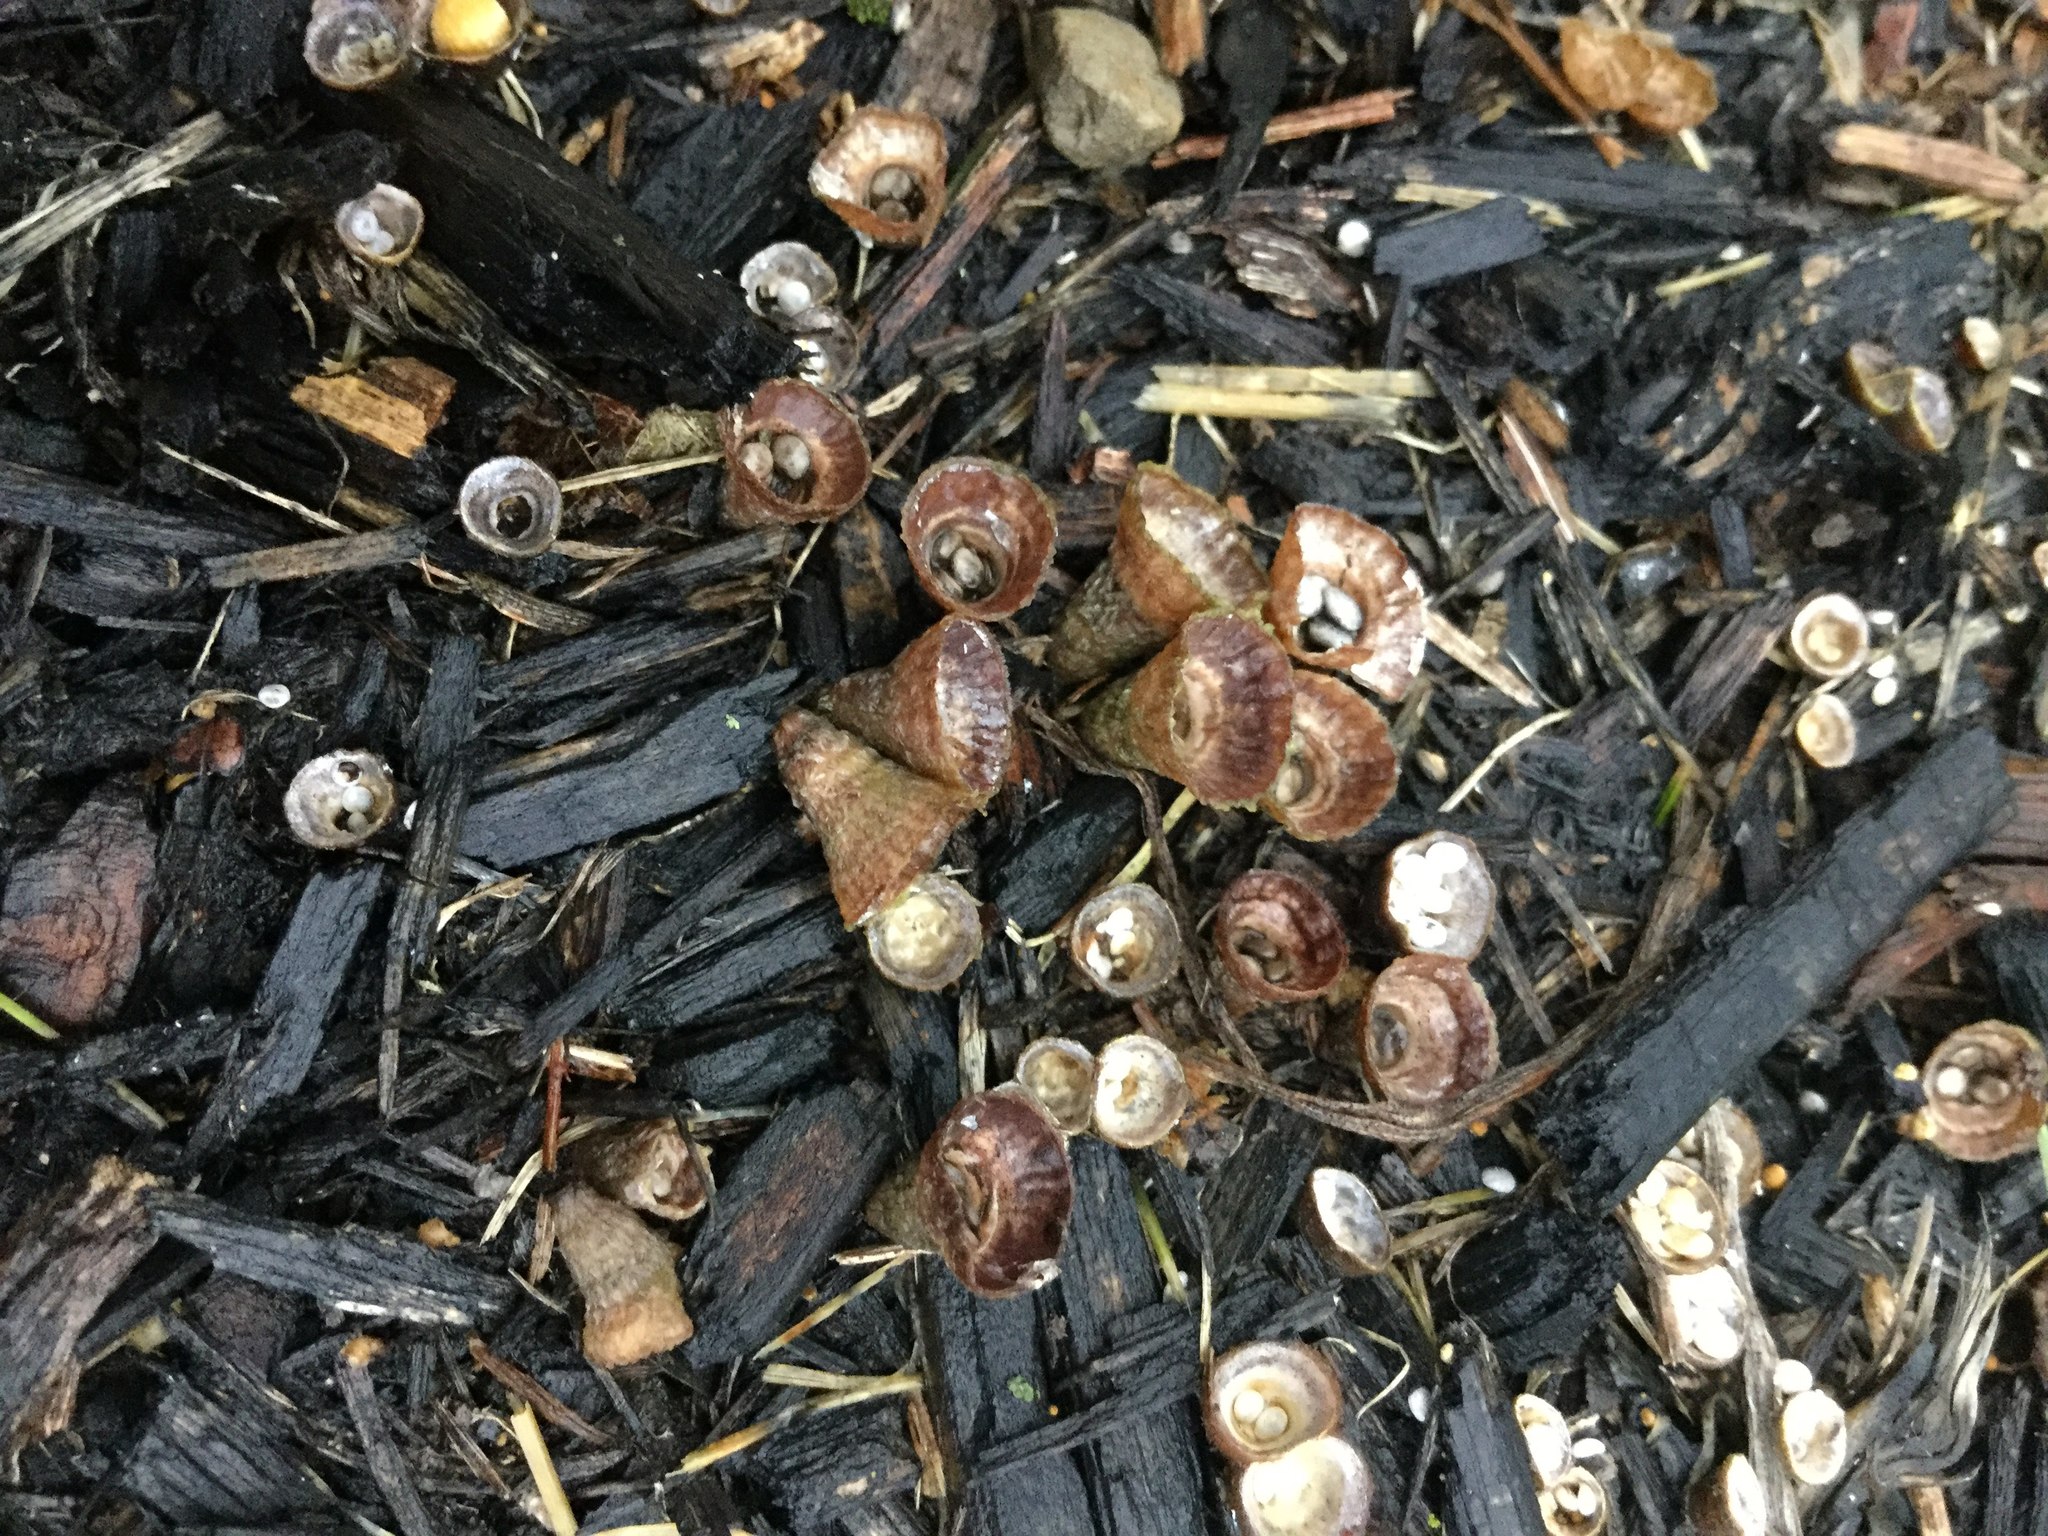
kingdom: Fungi
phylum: Basidiomycota
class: Agaricomycetes
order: Agaricales
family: Agaricaceae
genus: Cyathus
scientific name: Cyathus striatus
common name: Fluted bird's nest
